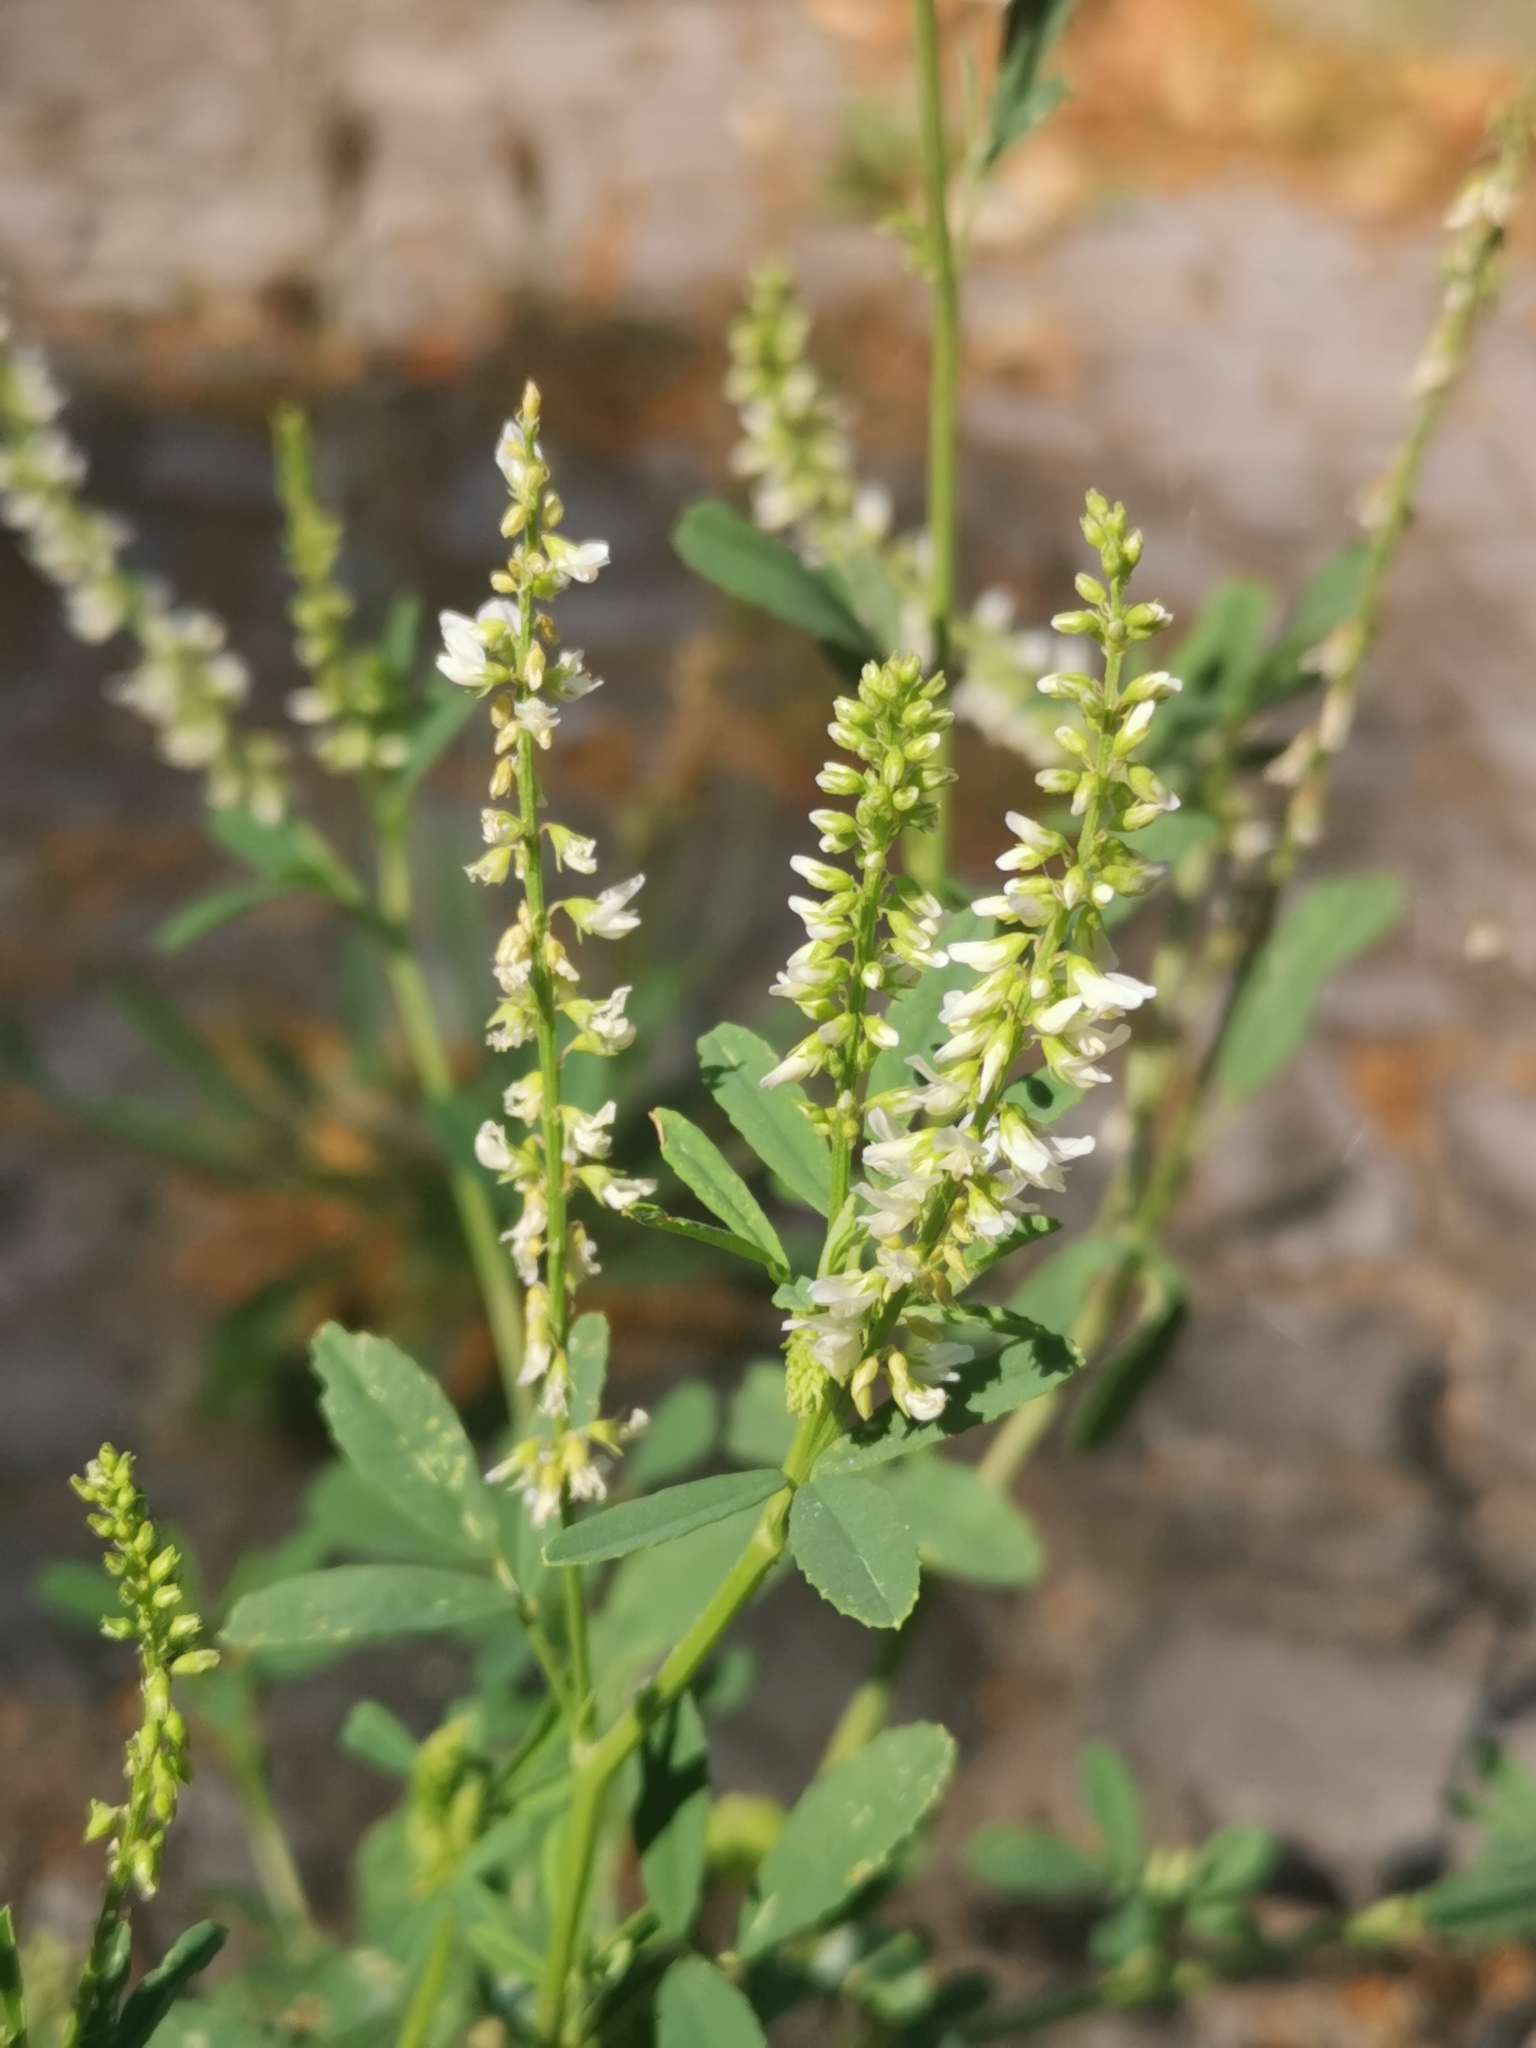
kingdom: Plantae
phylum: Tracheophyta
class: Magnoliopsida
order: Fabales
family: Fabaceae
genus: Melilotus
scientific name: Melilotus albus
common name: White melilot
